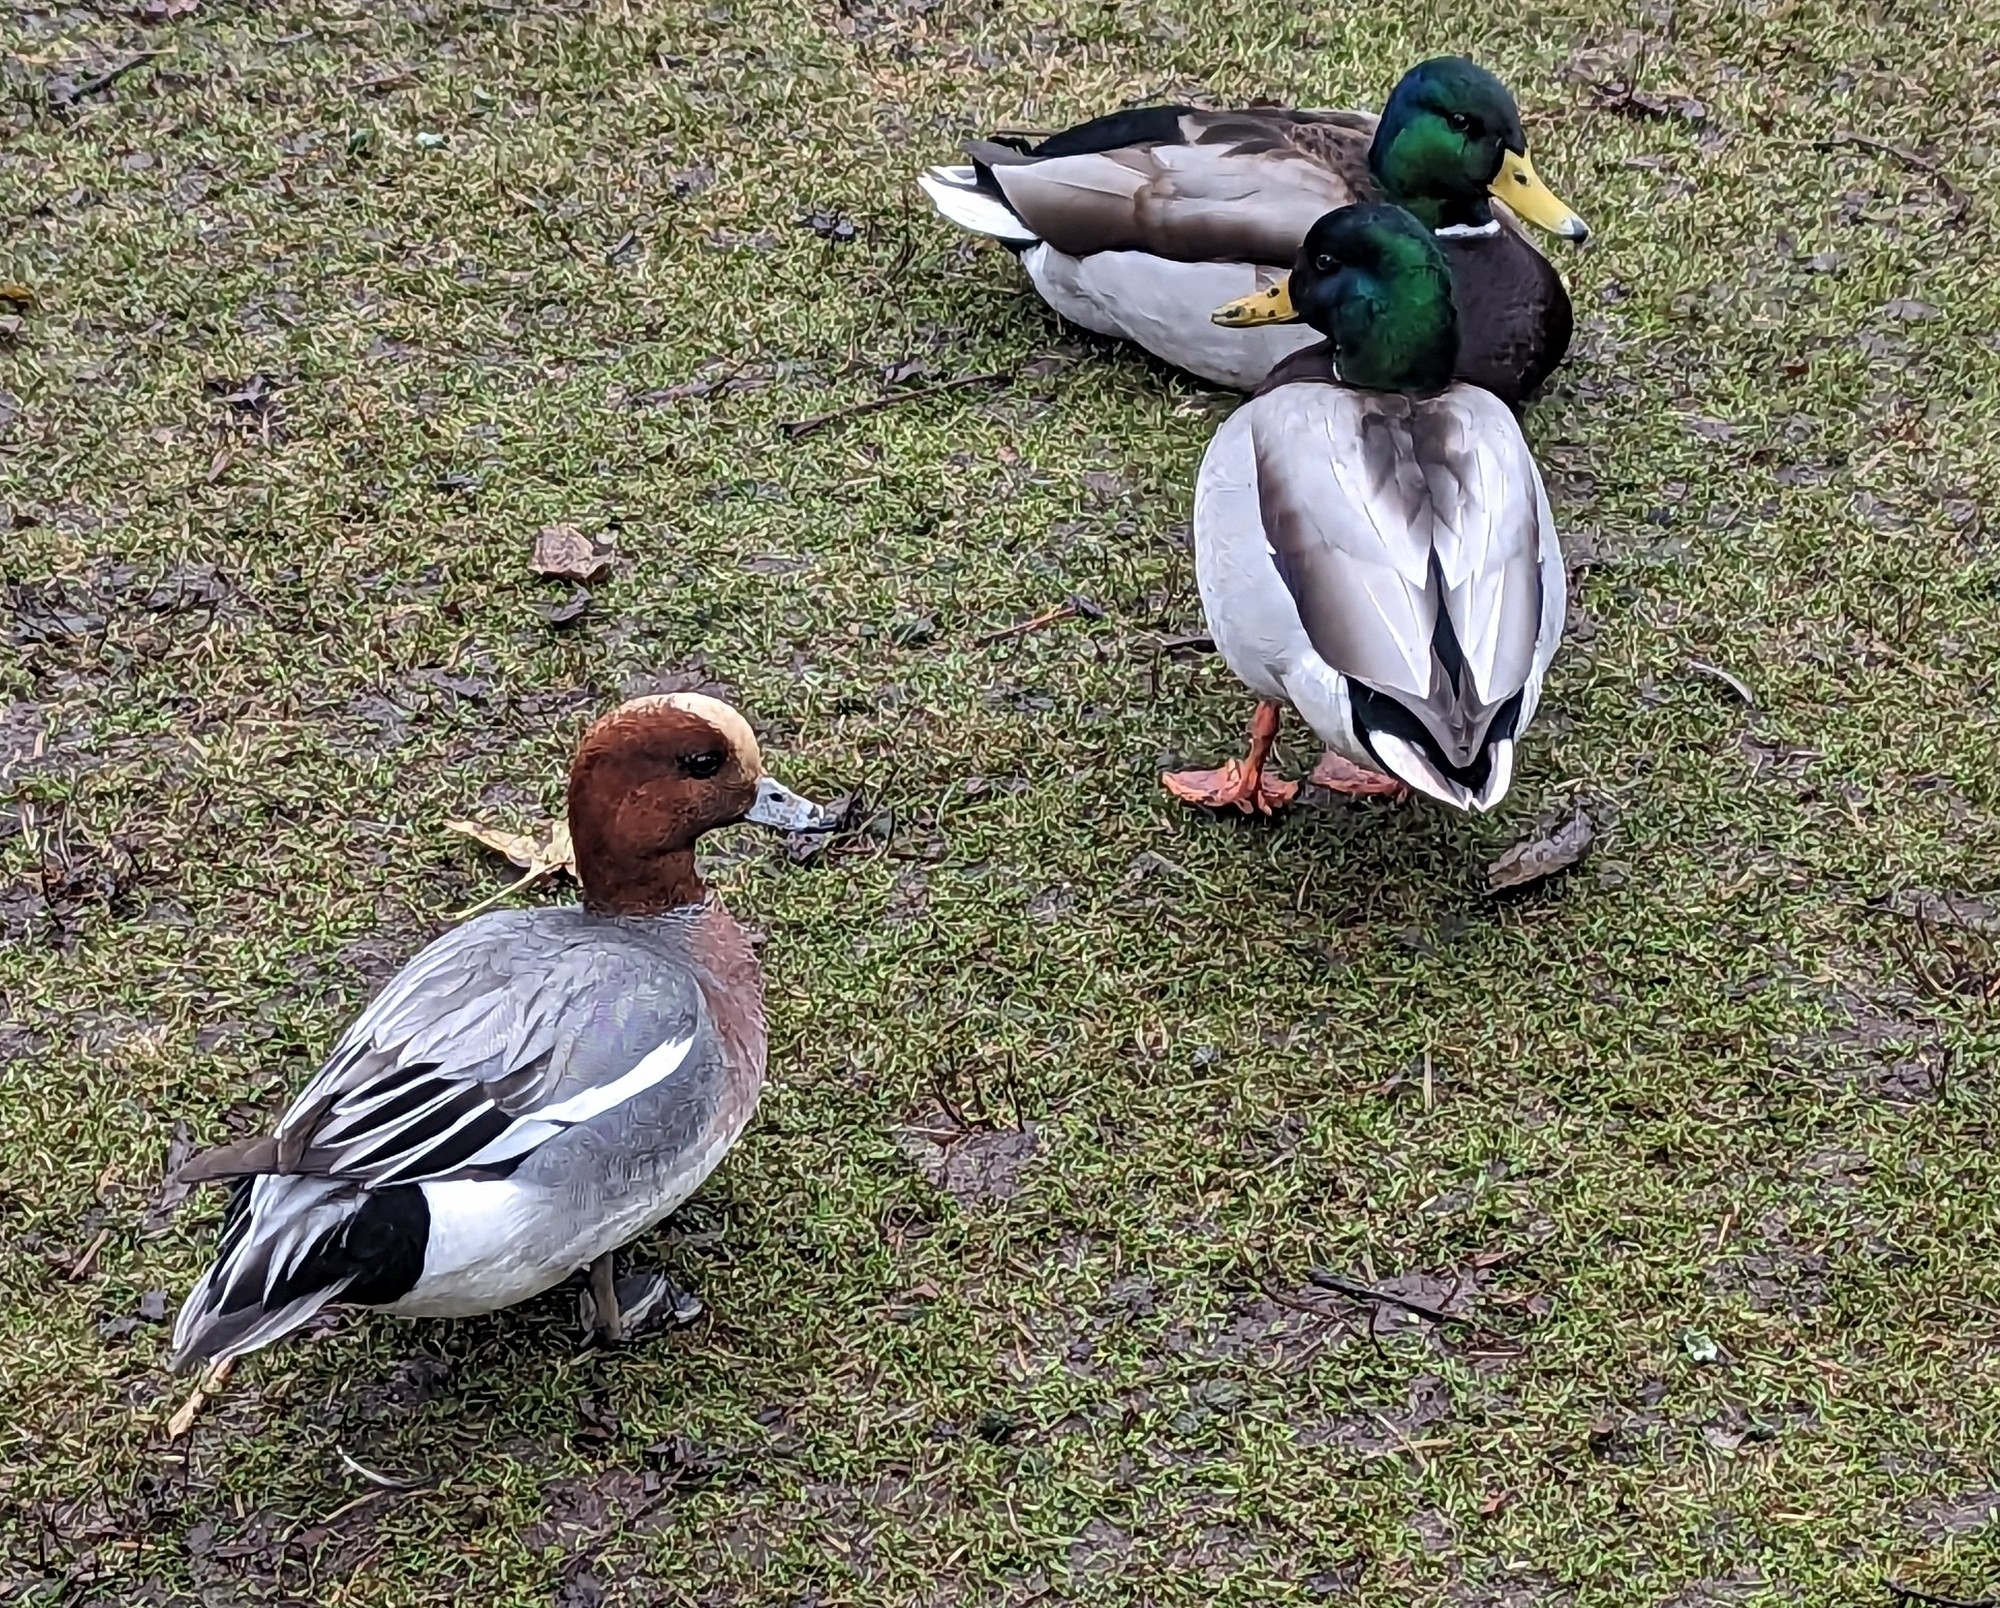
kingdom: Animalia
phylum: Chordata
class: Aves
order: Anseriformes
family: Anatidae
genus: Mareca
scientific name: Mareca penelope
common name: Eurasian wigeon
